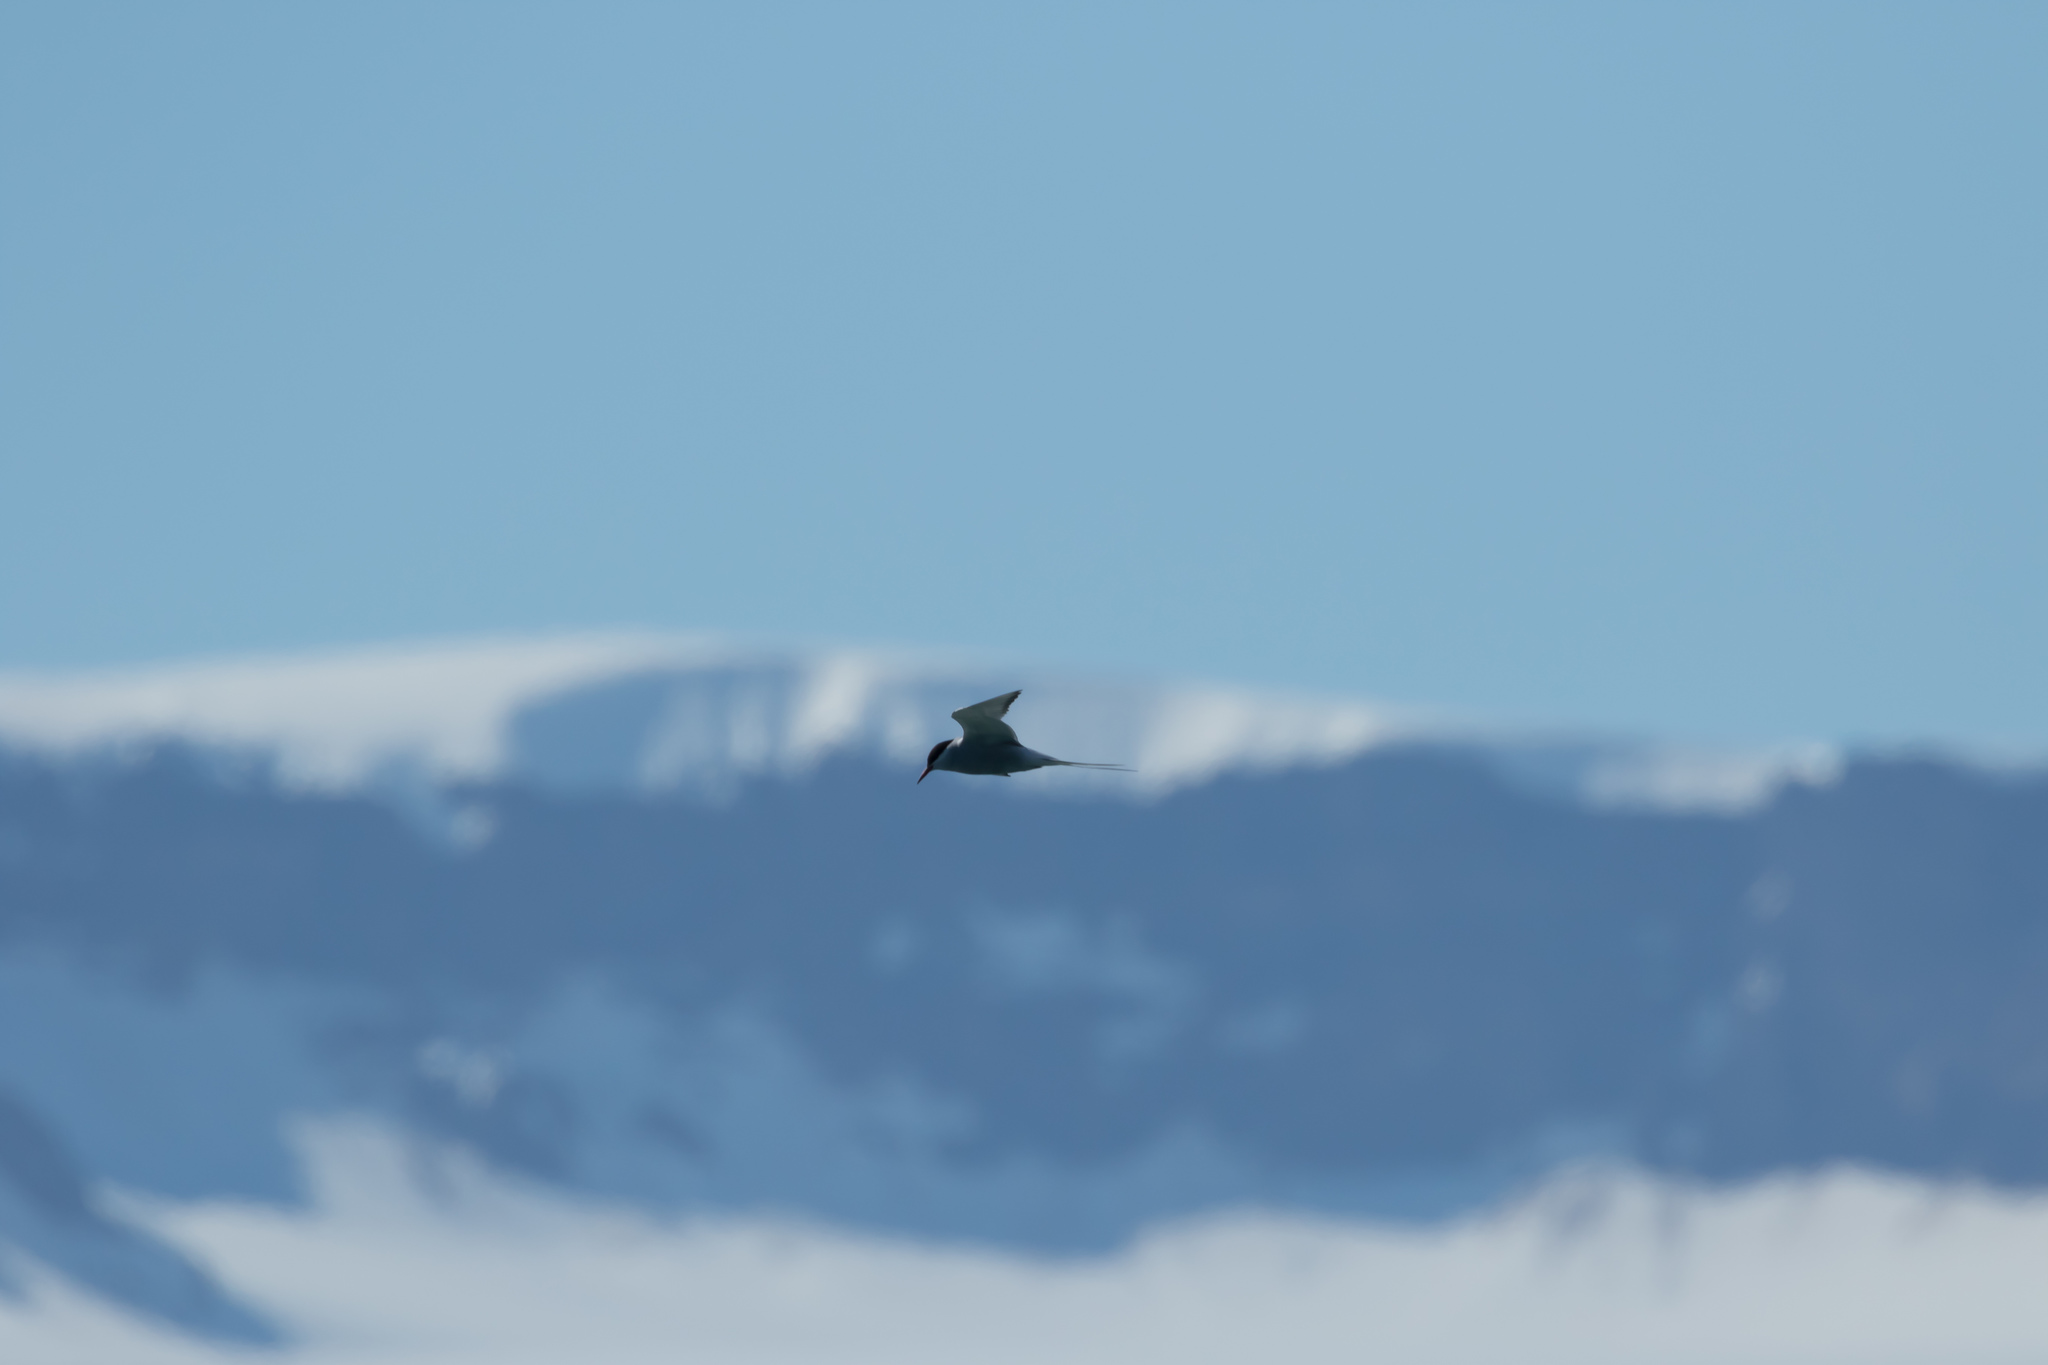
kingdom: Animalia
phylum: Chordata
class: Aves
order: Charadriiformes
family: Laridae
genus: Sterna
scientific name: Sterna paradisaea
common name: Arctic tern
